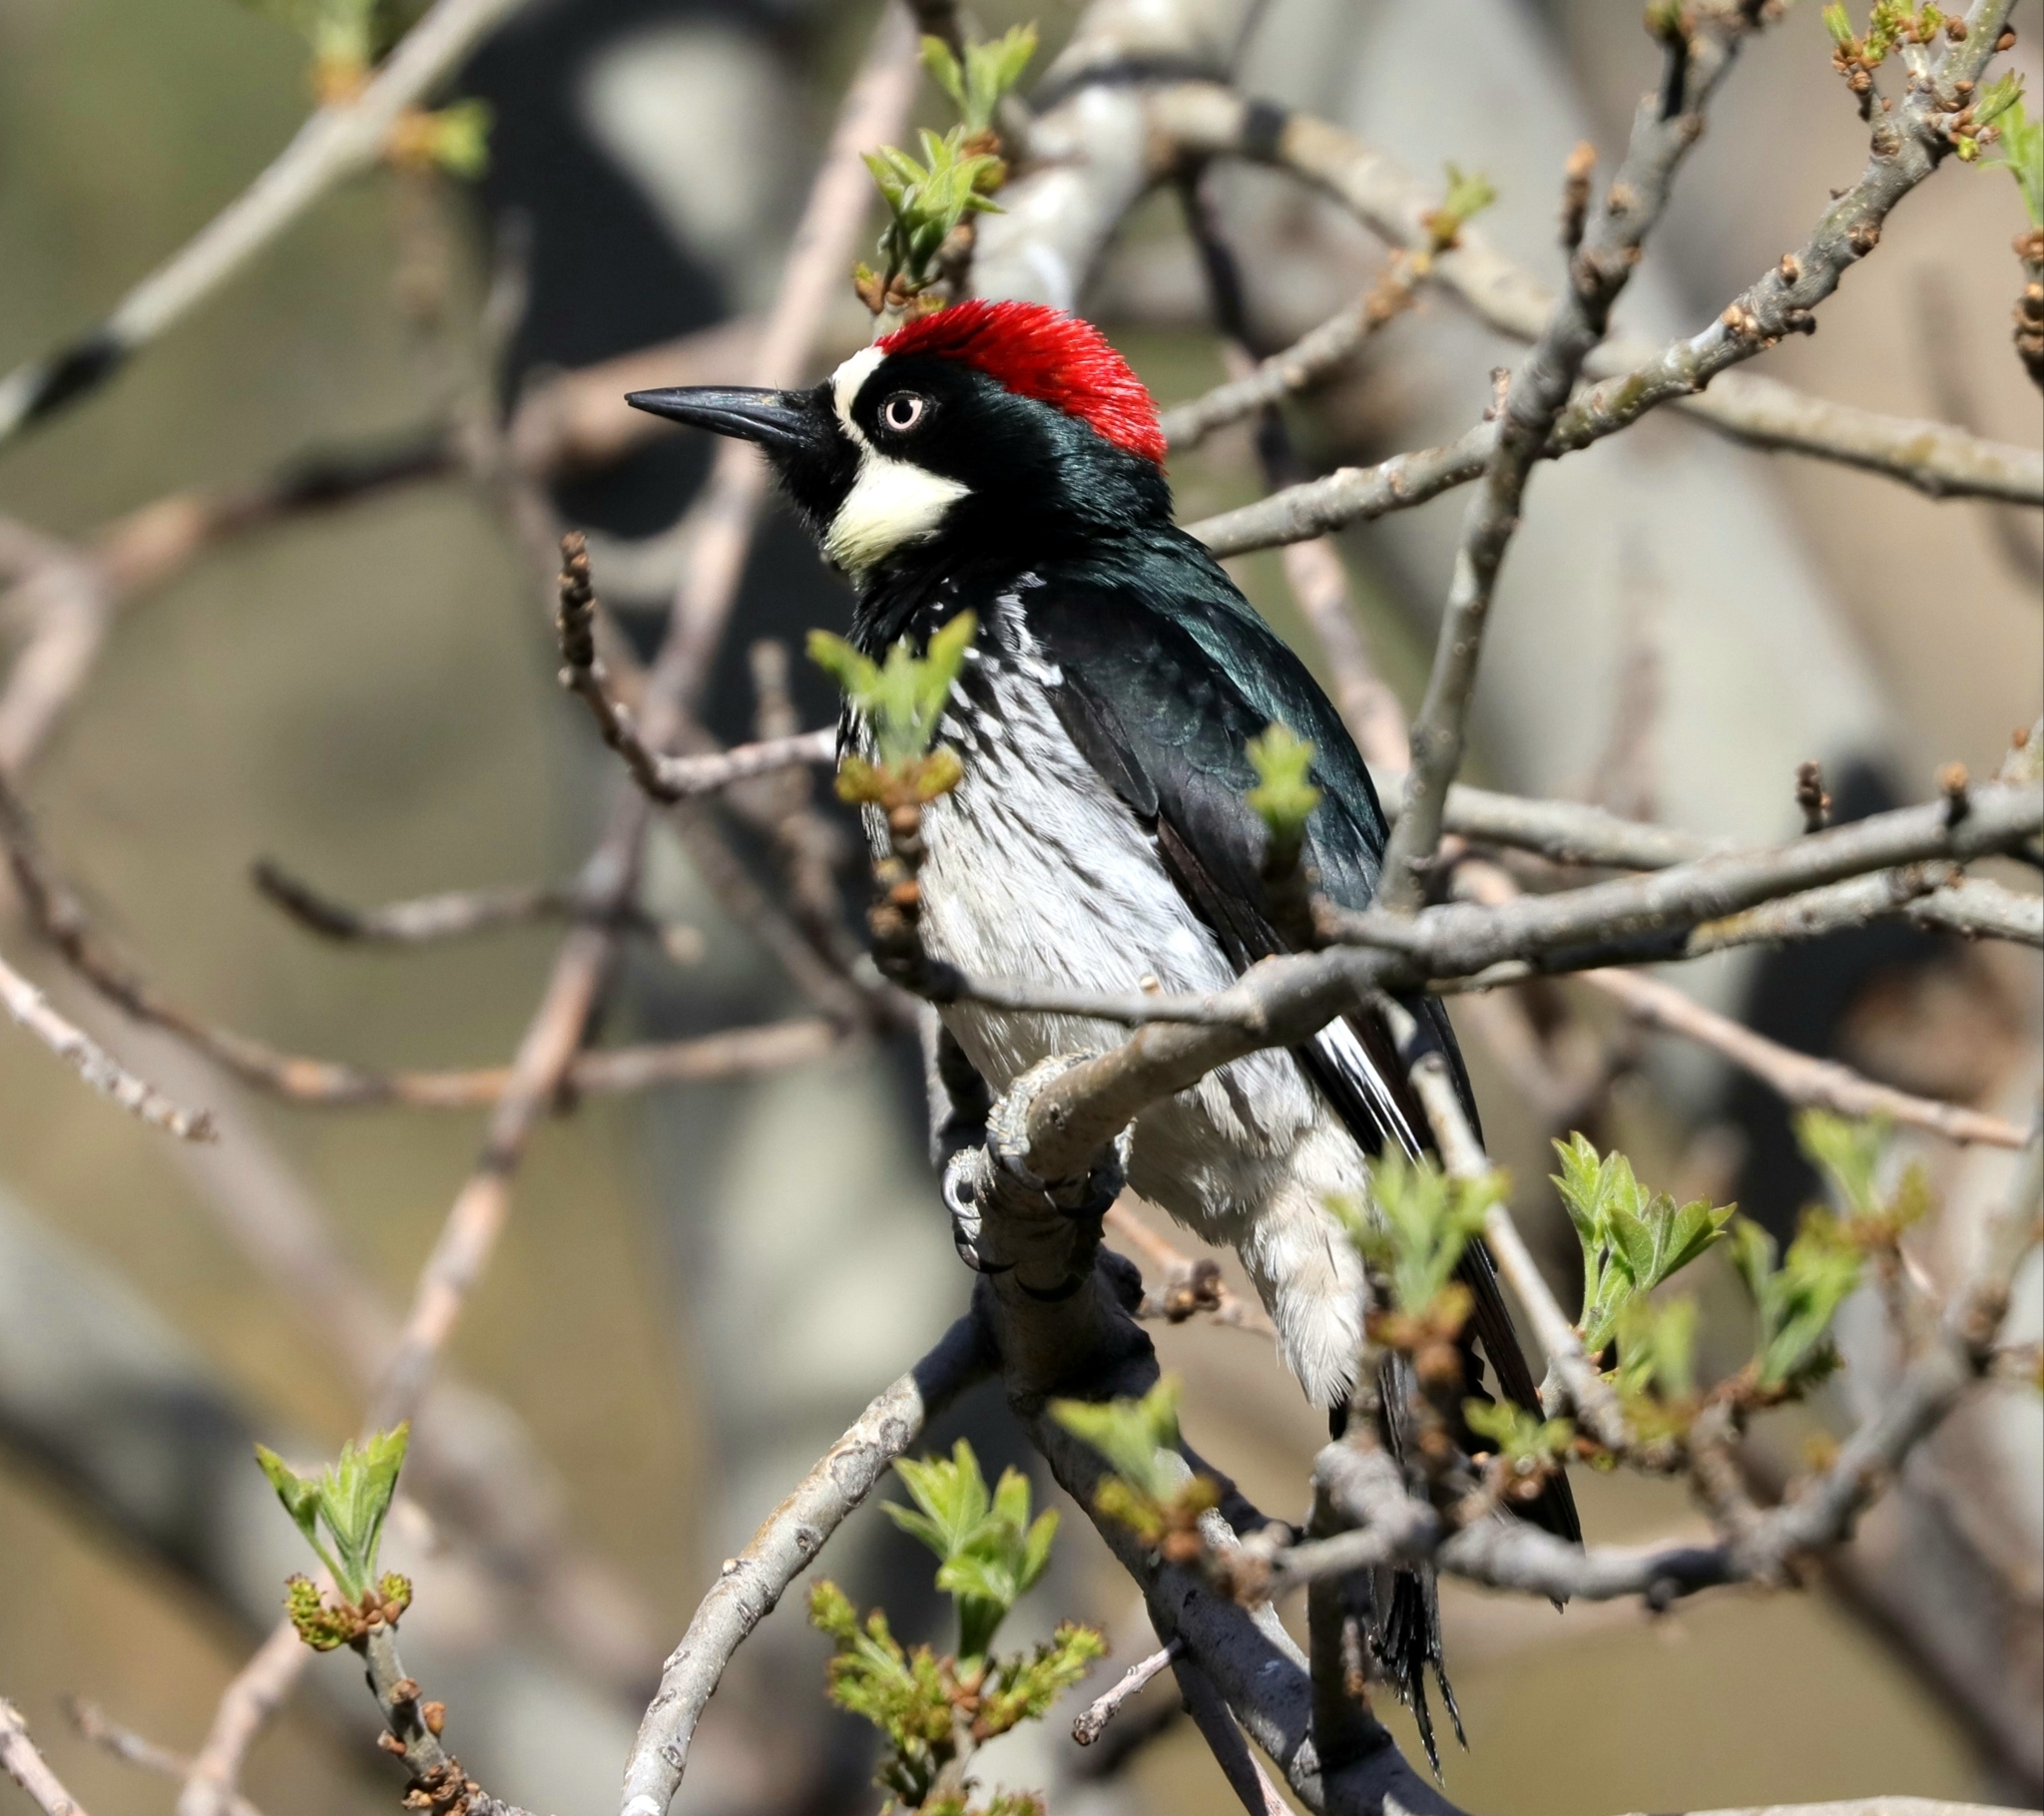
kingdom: Animalia
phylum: Chordata
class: Aves
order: Piciformes
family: Picidae
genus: Melanerpes
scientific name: Melanerpes formicivorus
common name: Acorn woodpecker
